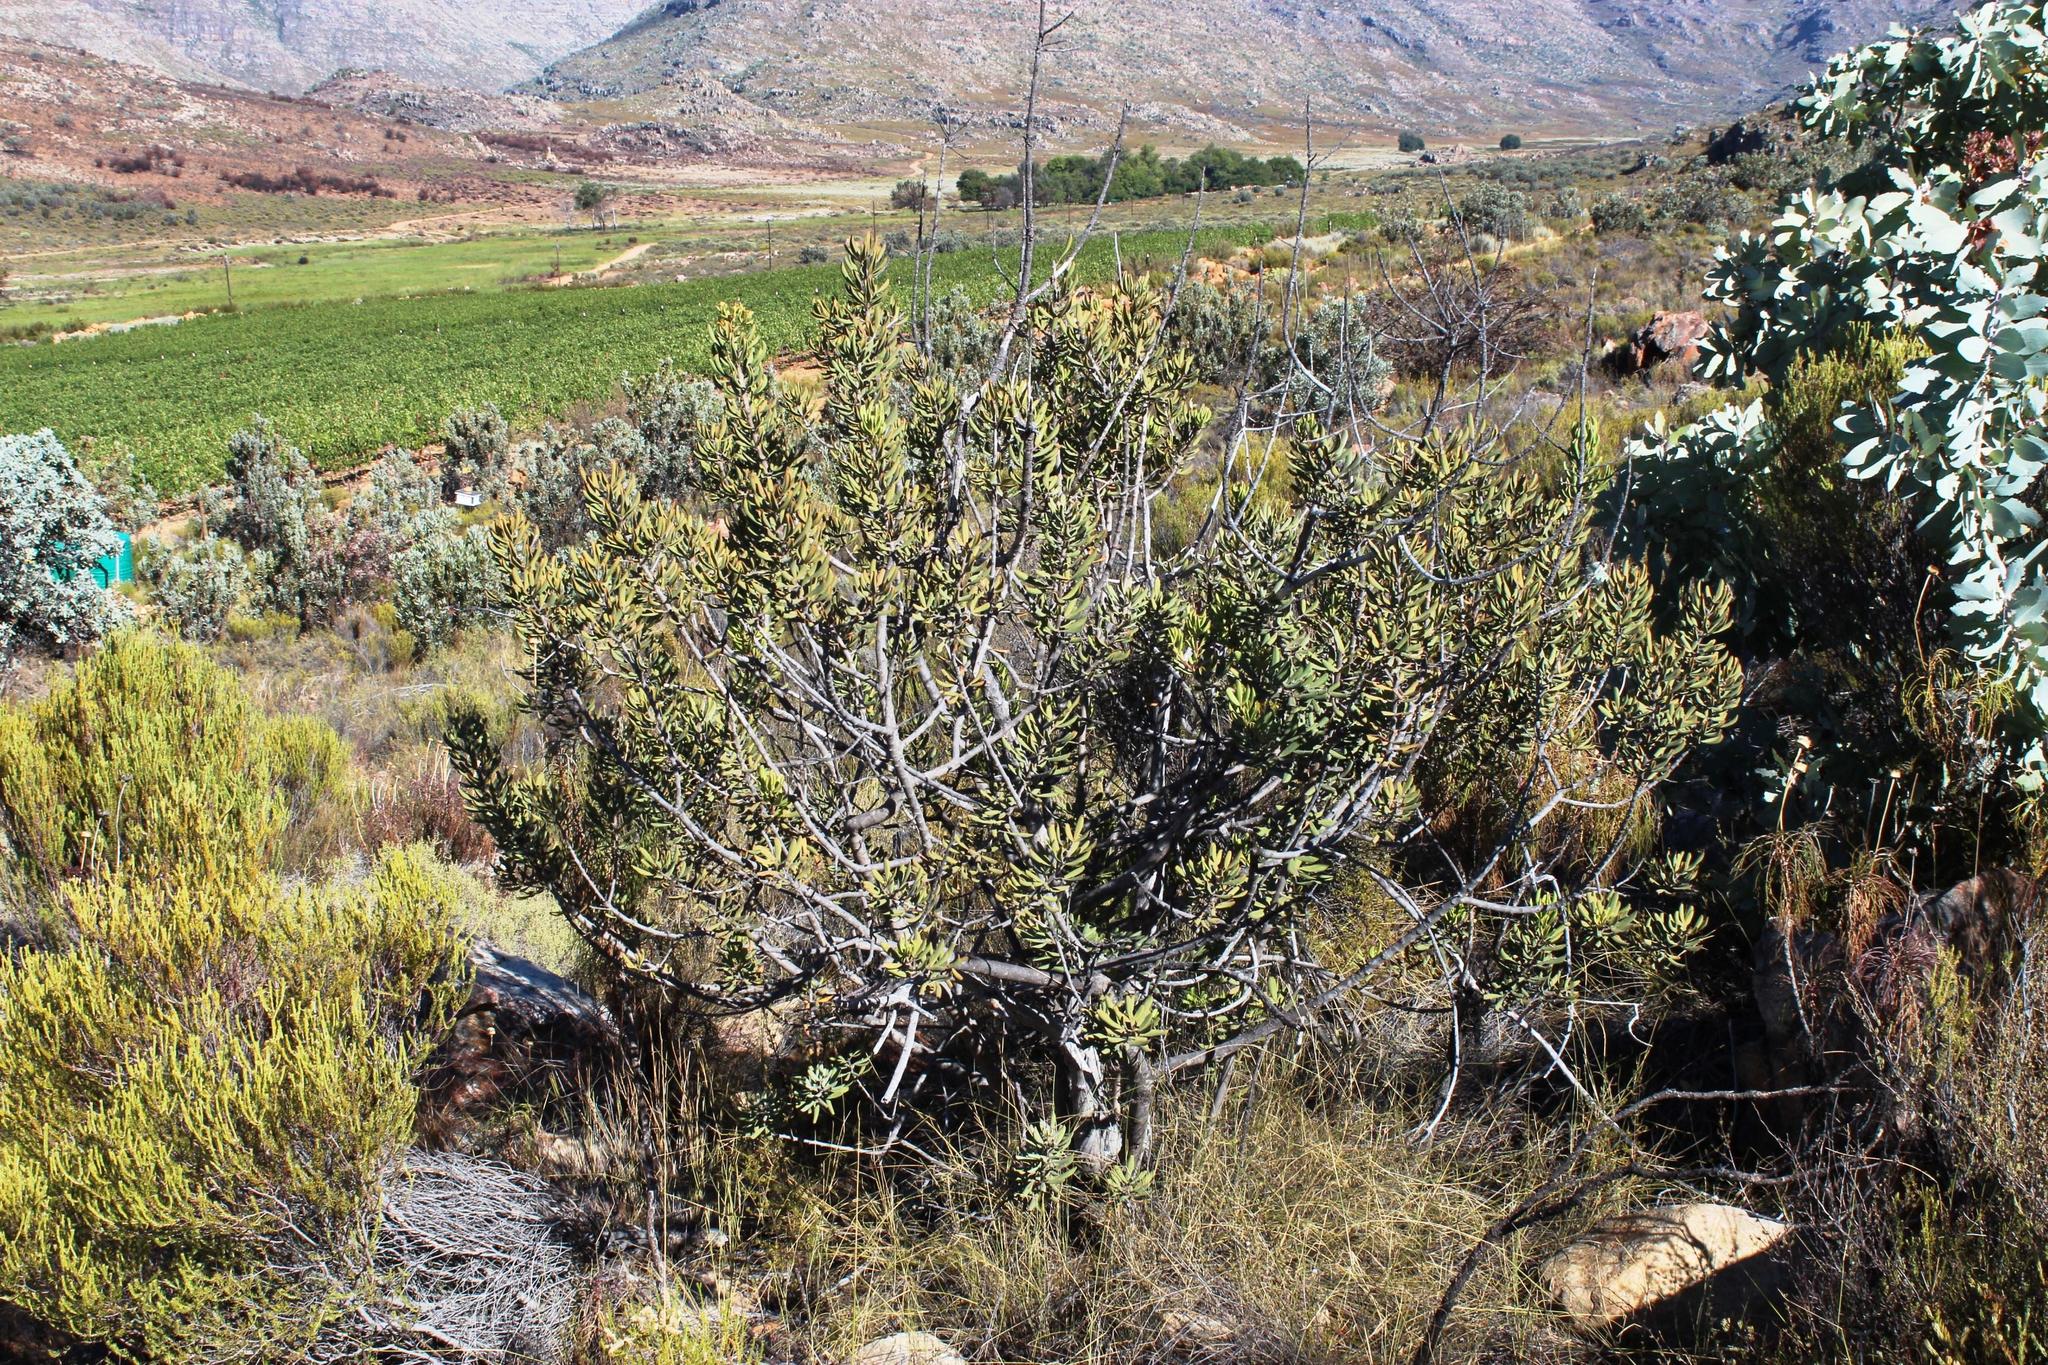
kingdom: Plantae
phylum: Tracheophyta
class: Magnoliopsida
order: Sapindales
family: Anacardiaceae
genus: Searsia
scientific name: Searsia scytophylla
